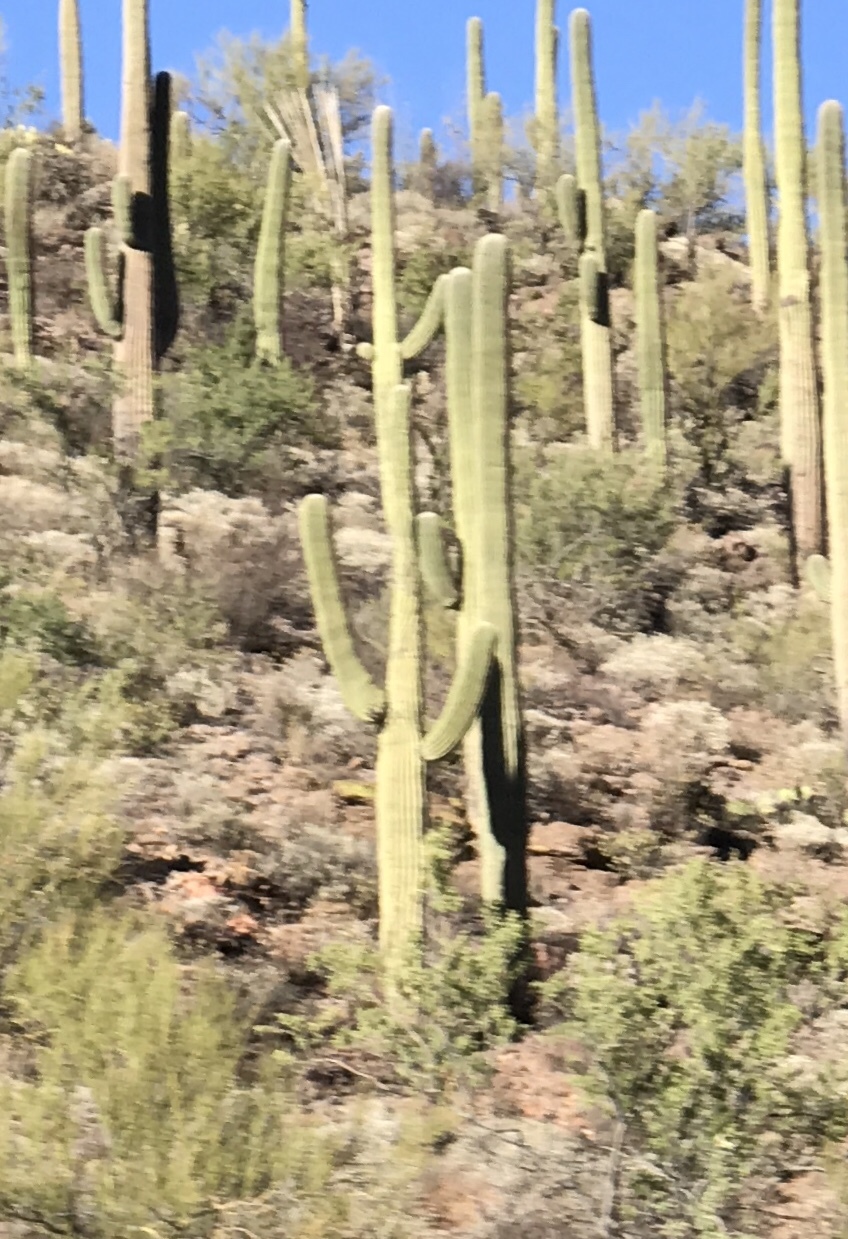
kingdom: Plantae
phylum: Tracheophyta
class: Magnoliopsida
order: Caryophyllales
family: Cactaceae
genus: Carnegiea
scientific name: Carnegiea gigantea
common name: Saguaro
